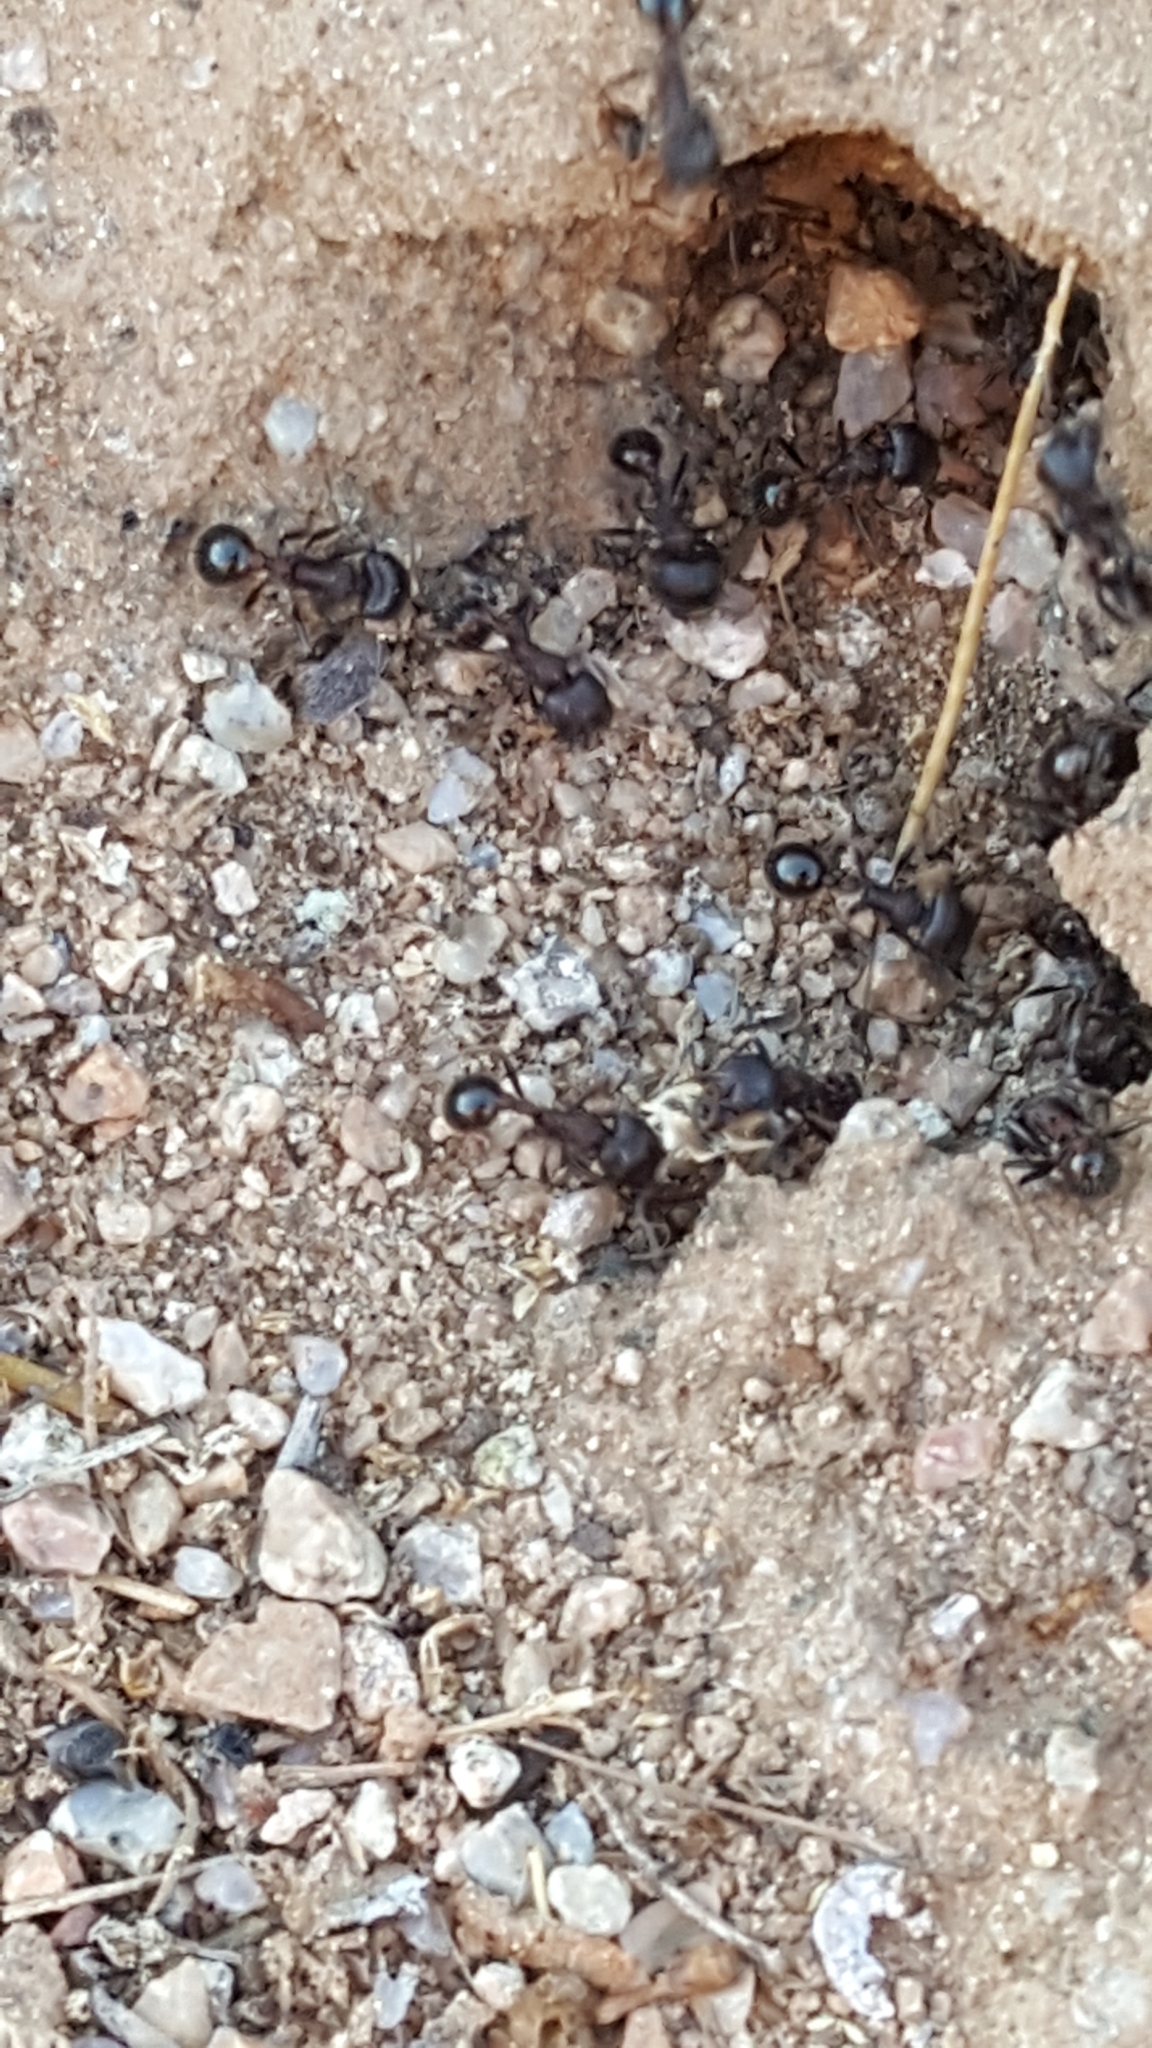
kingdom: Animalia
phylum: Arthropoda
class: Insecta
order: Hymenoptera
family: Formicidae
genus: Pogonomyrmex
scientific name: Pogonomyrmex rugosus
